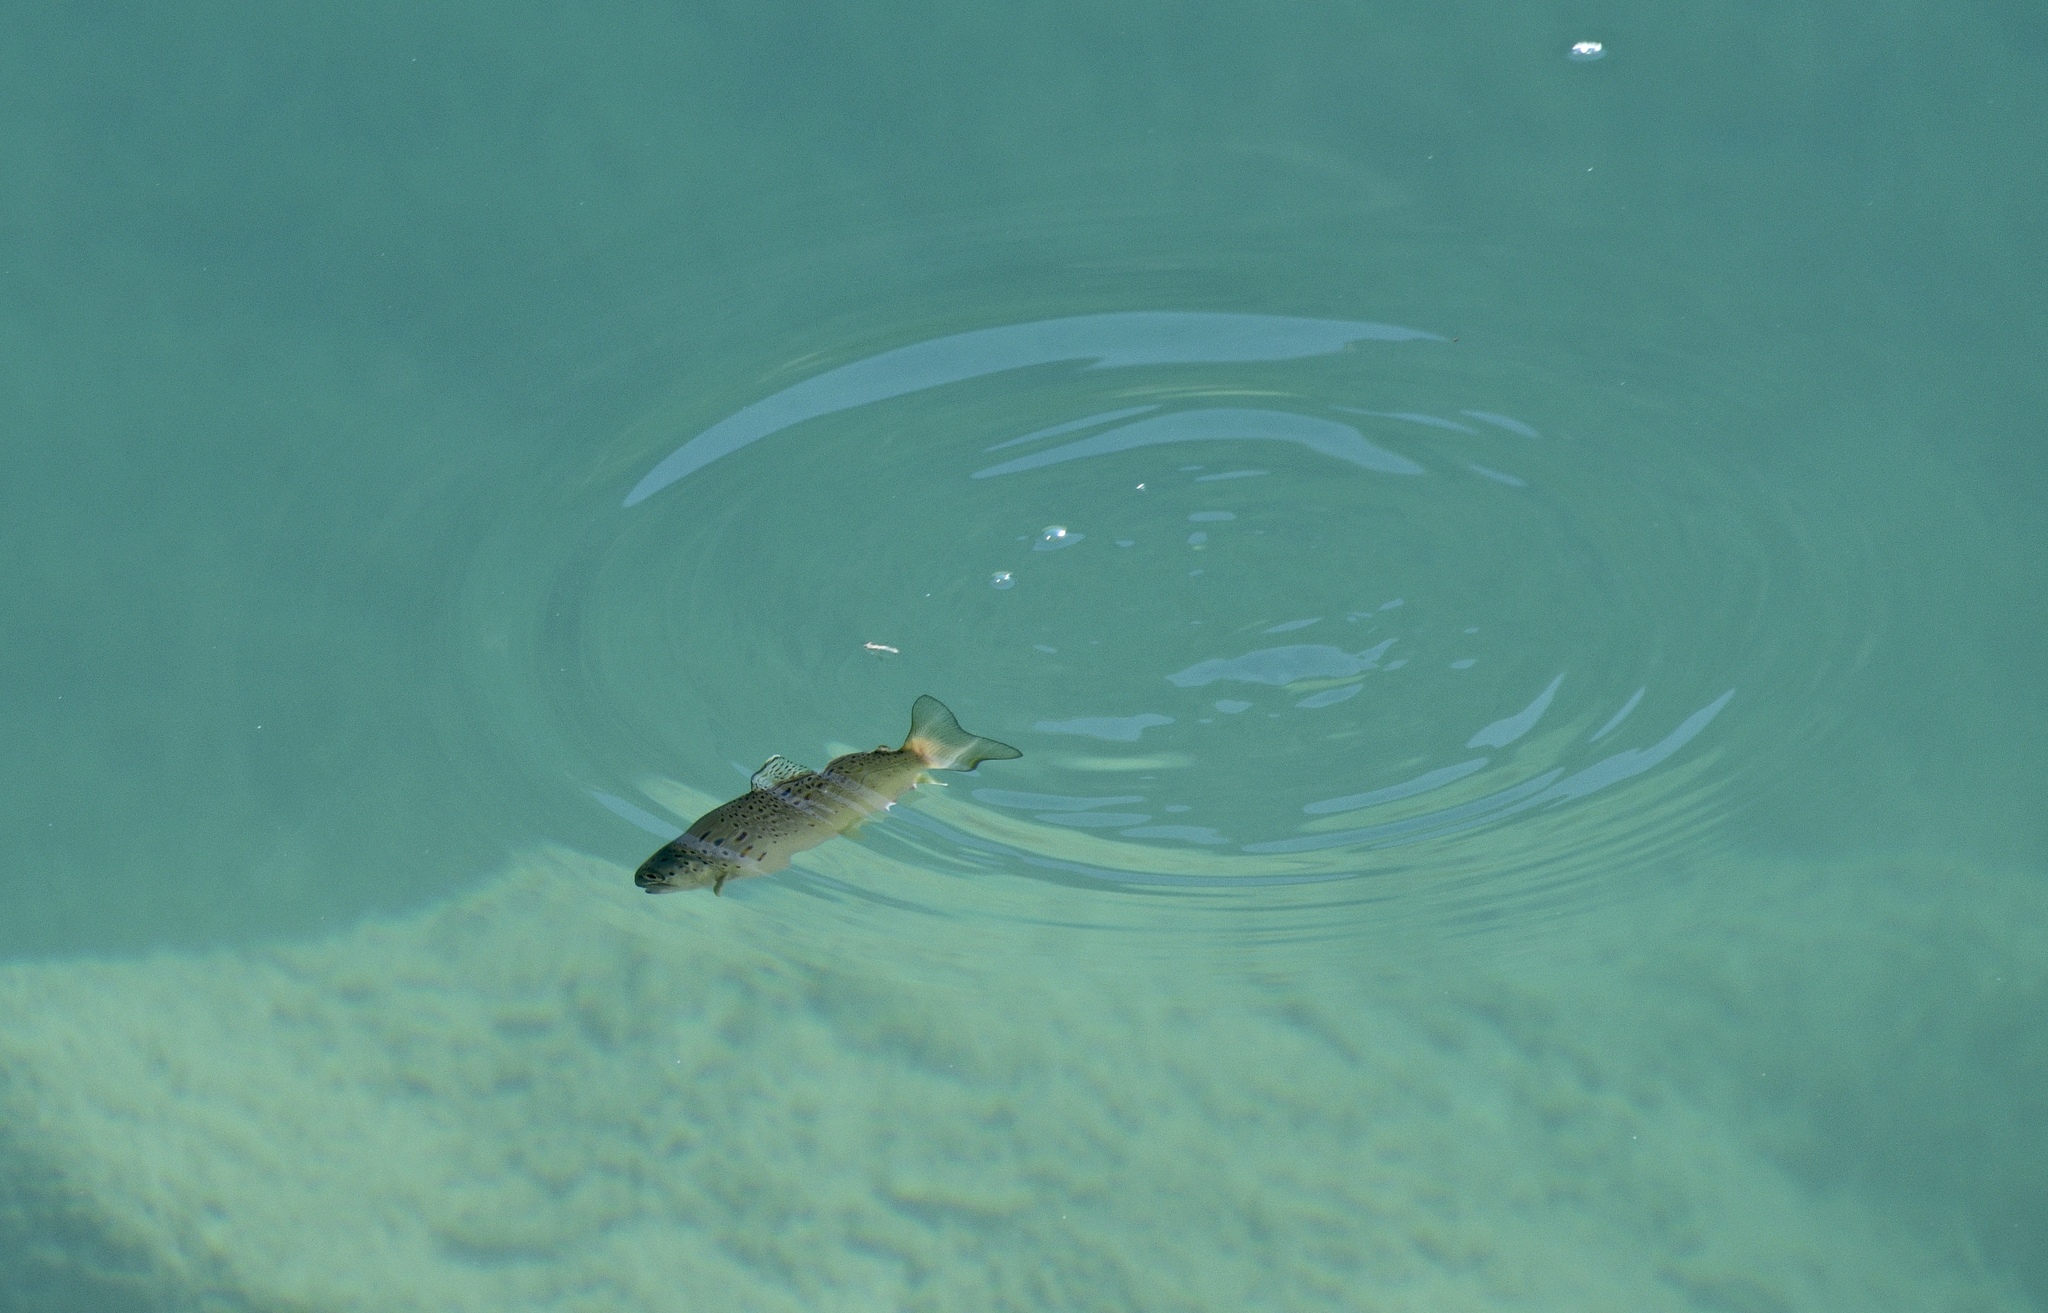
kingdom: Animalia
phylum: Chordata
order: Salmoniformes
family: Salmonidae
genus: Salmo
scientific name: Salmo trutta
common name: Brown trout
